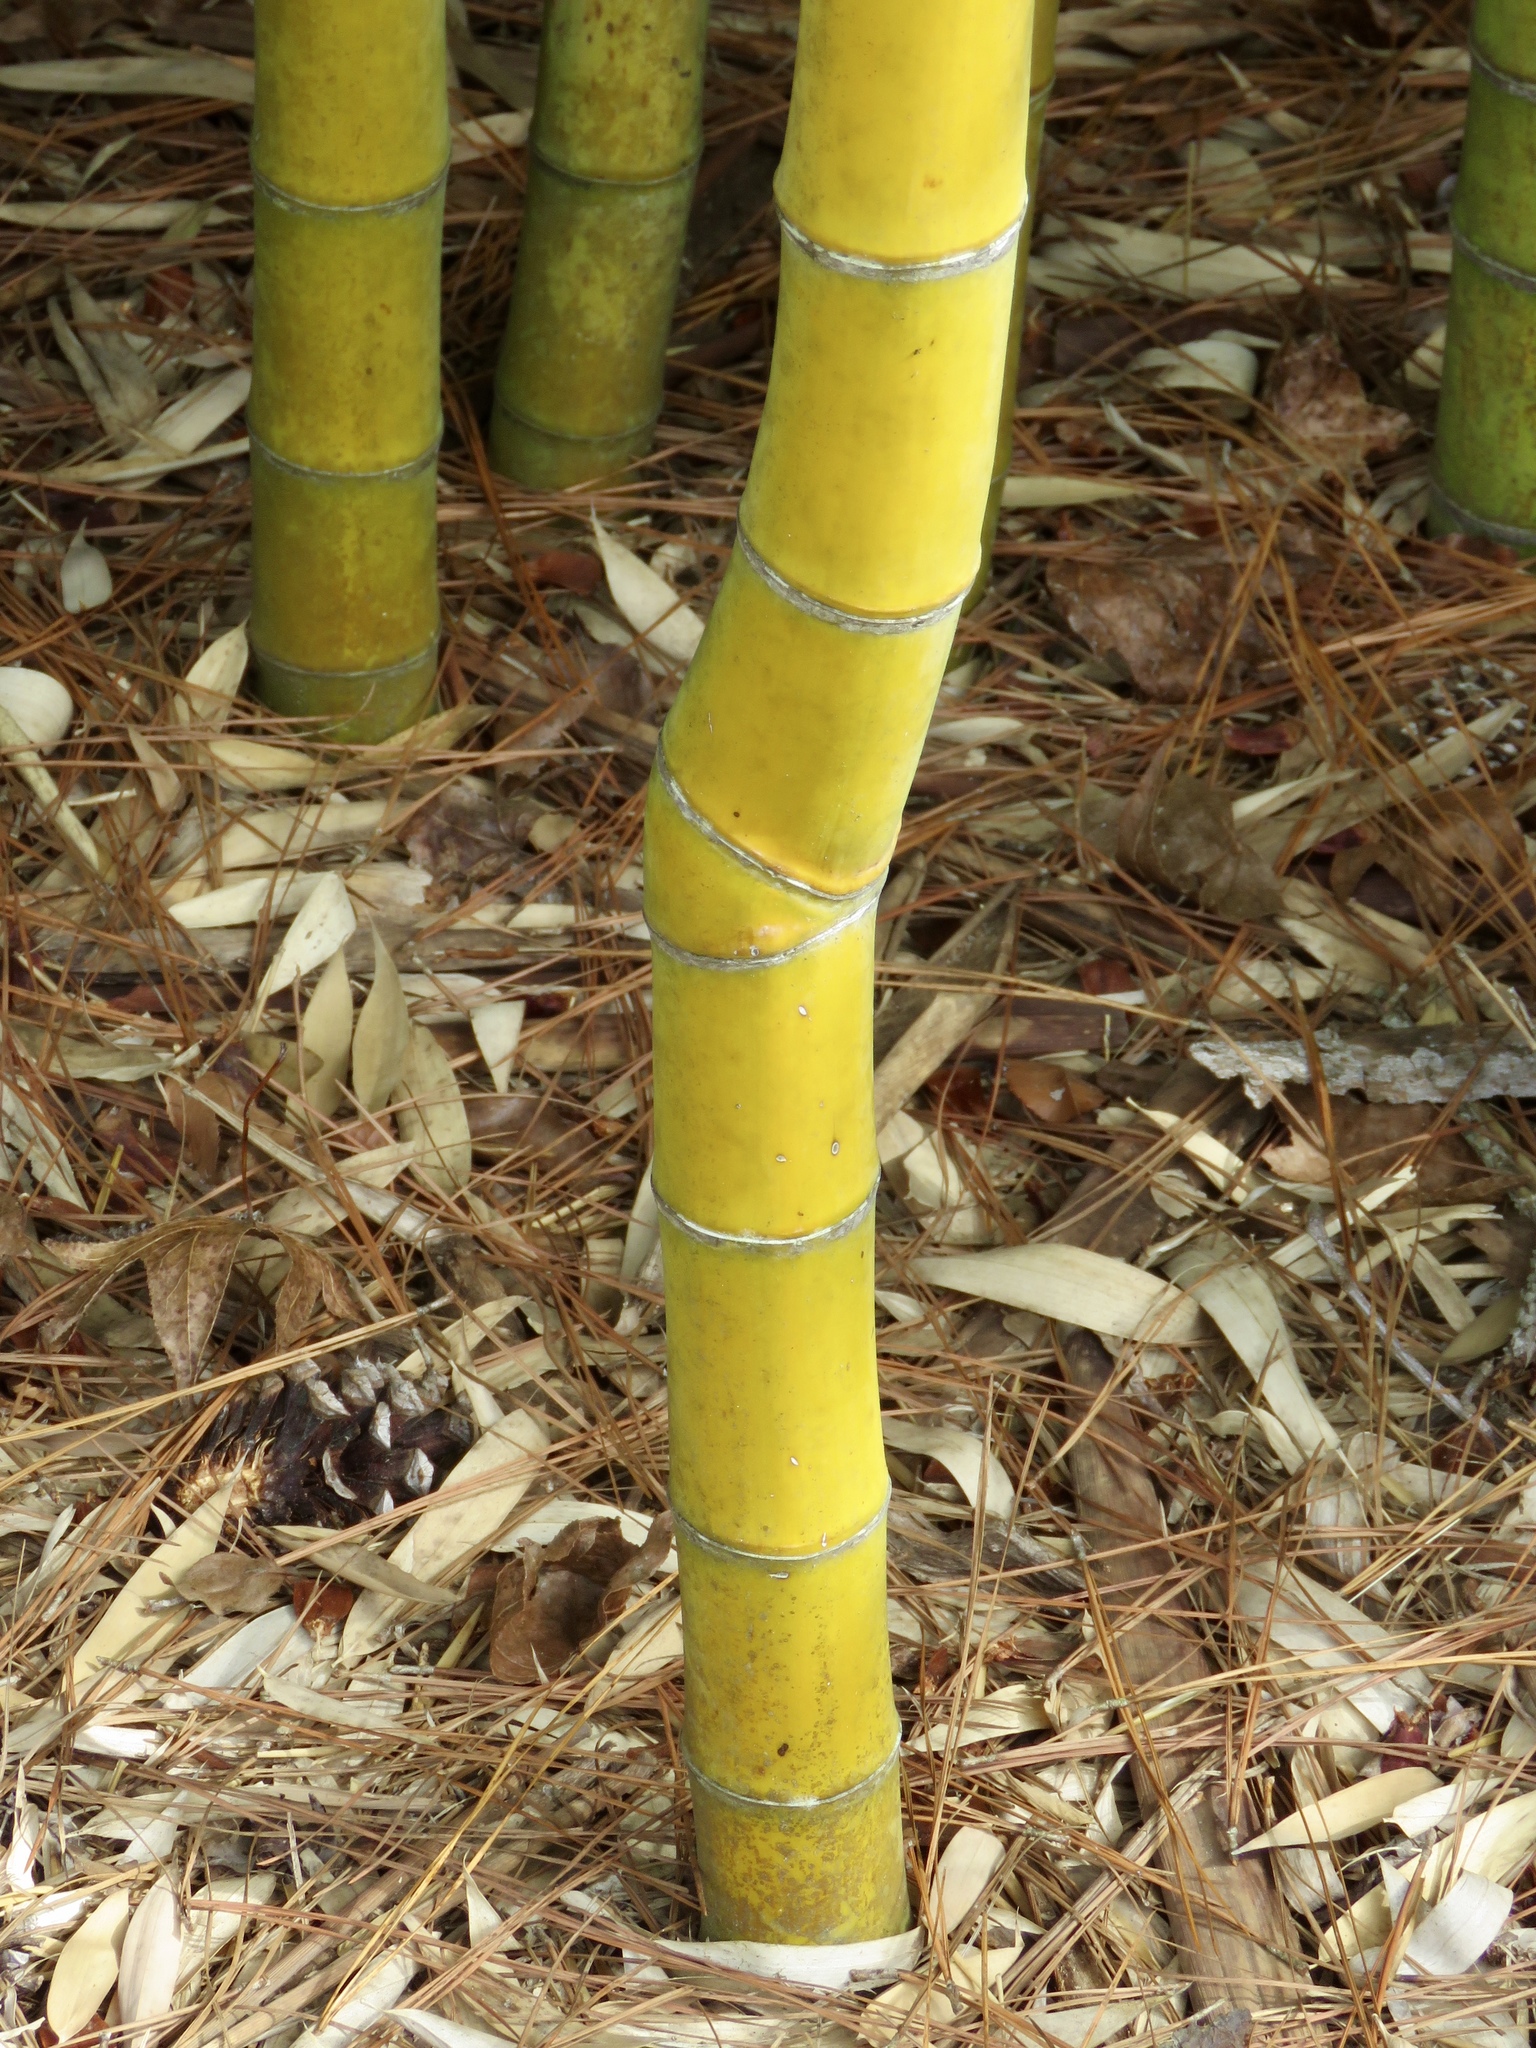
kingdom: Plantae
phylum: Tracheophyta
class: Liliopsida
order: Poales
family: Poaceae
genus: Phyllostachys
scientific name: Phyllostachys aurea
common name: Golden bamboo
